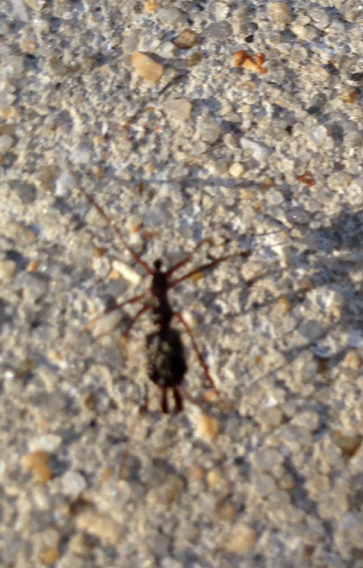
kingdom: Animalia
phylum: Arthropoda
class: Insecta
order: Hymenoptera
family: Formicidae
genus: Odontomachus
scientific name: Odontomachus
